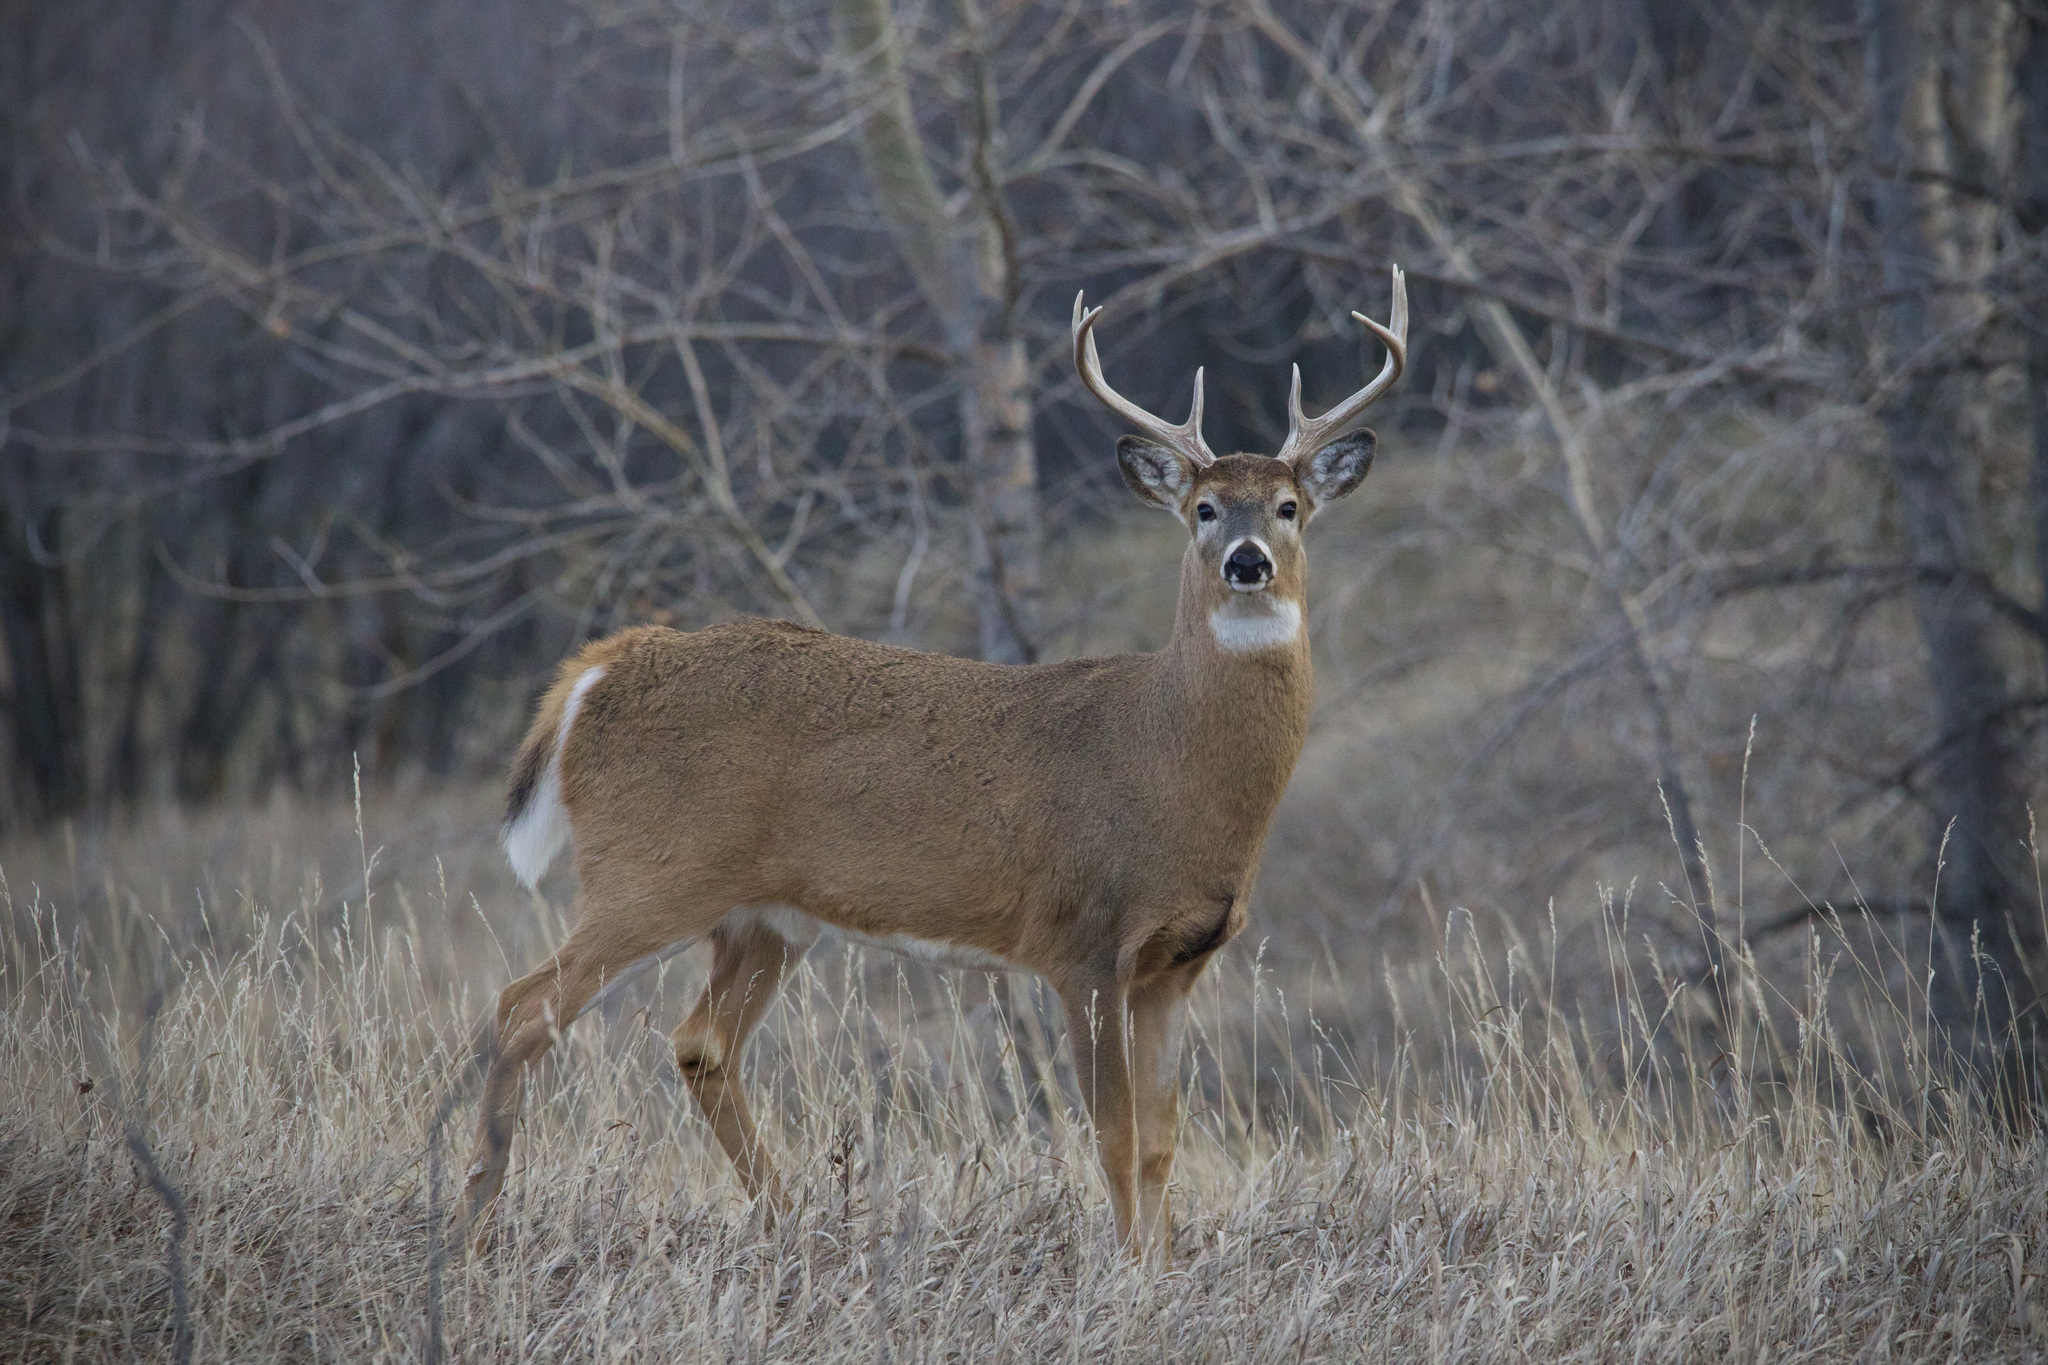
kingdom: Animalia
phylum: Chordata
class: Mammalia
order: Artiodactyla
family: Cervidae
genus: Odocoileus
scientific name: Odocoileus virginianus
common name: White-tailed deer
